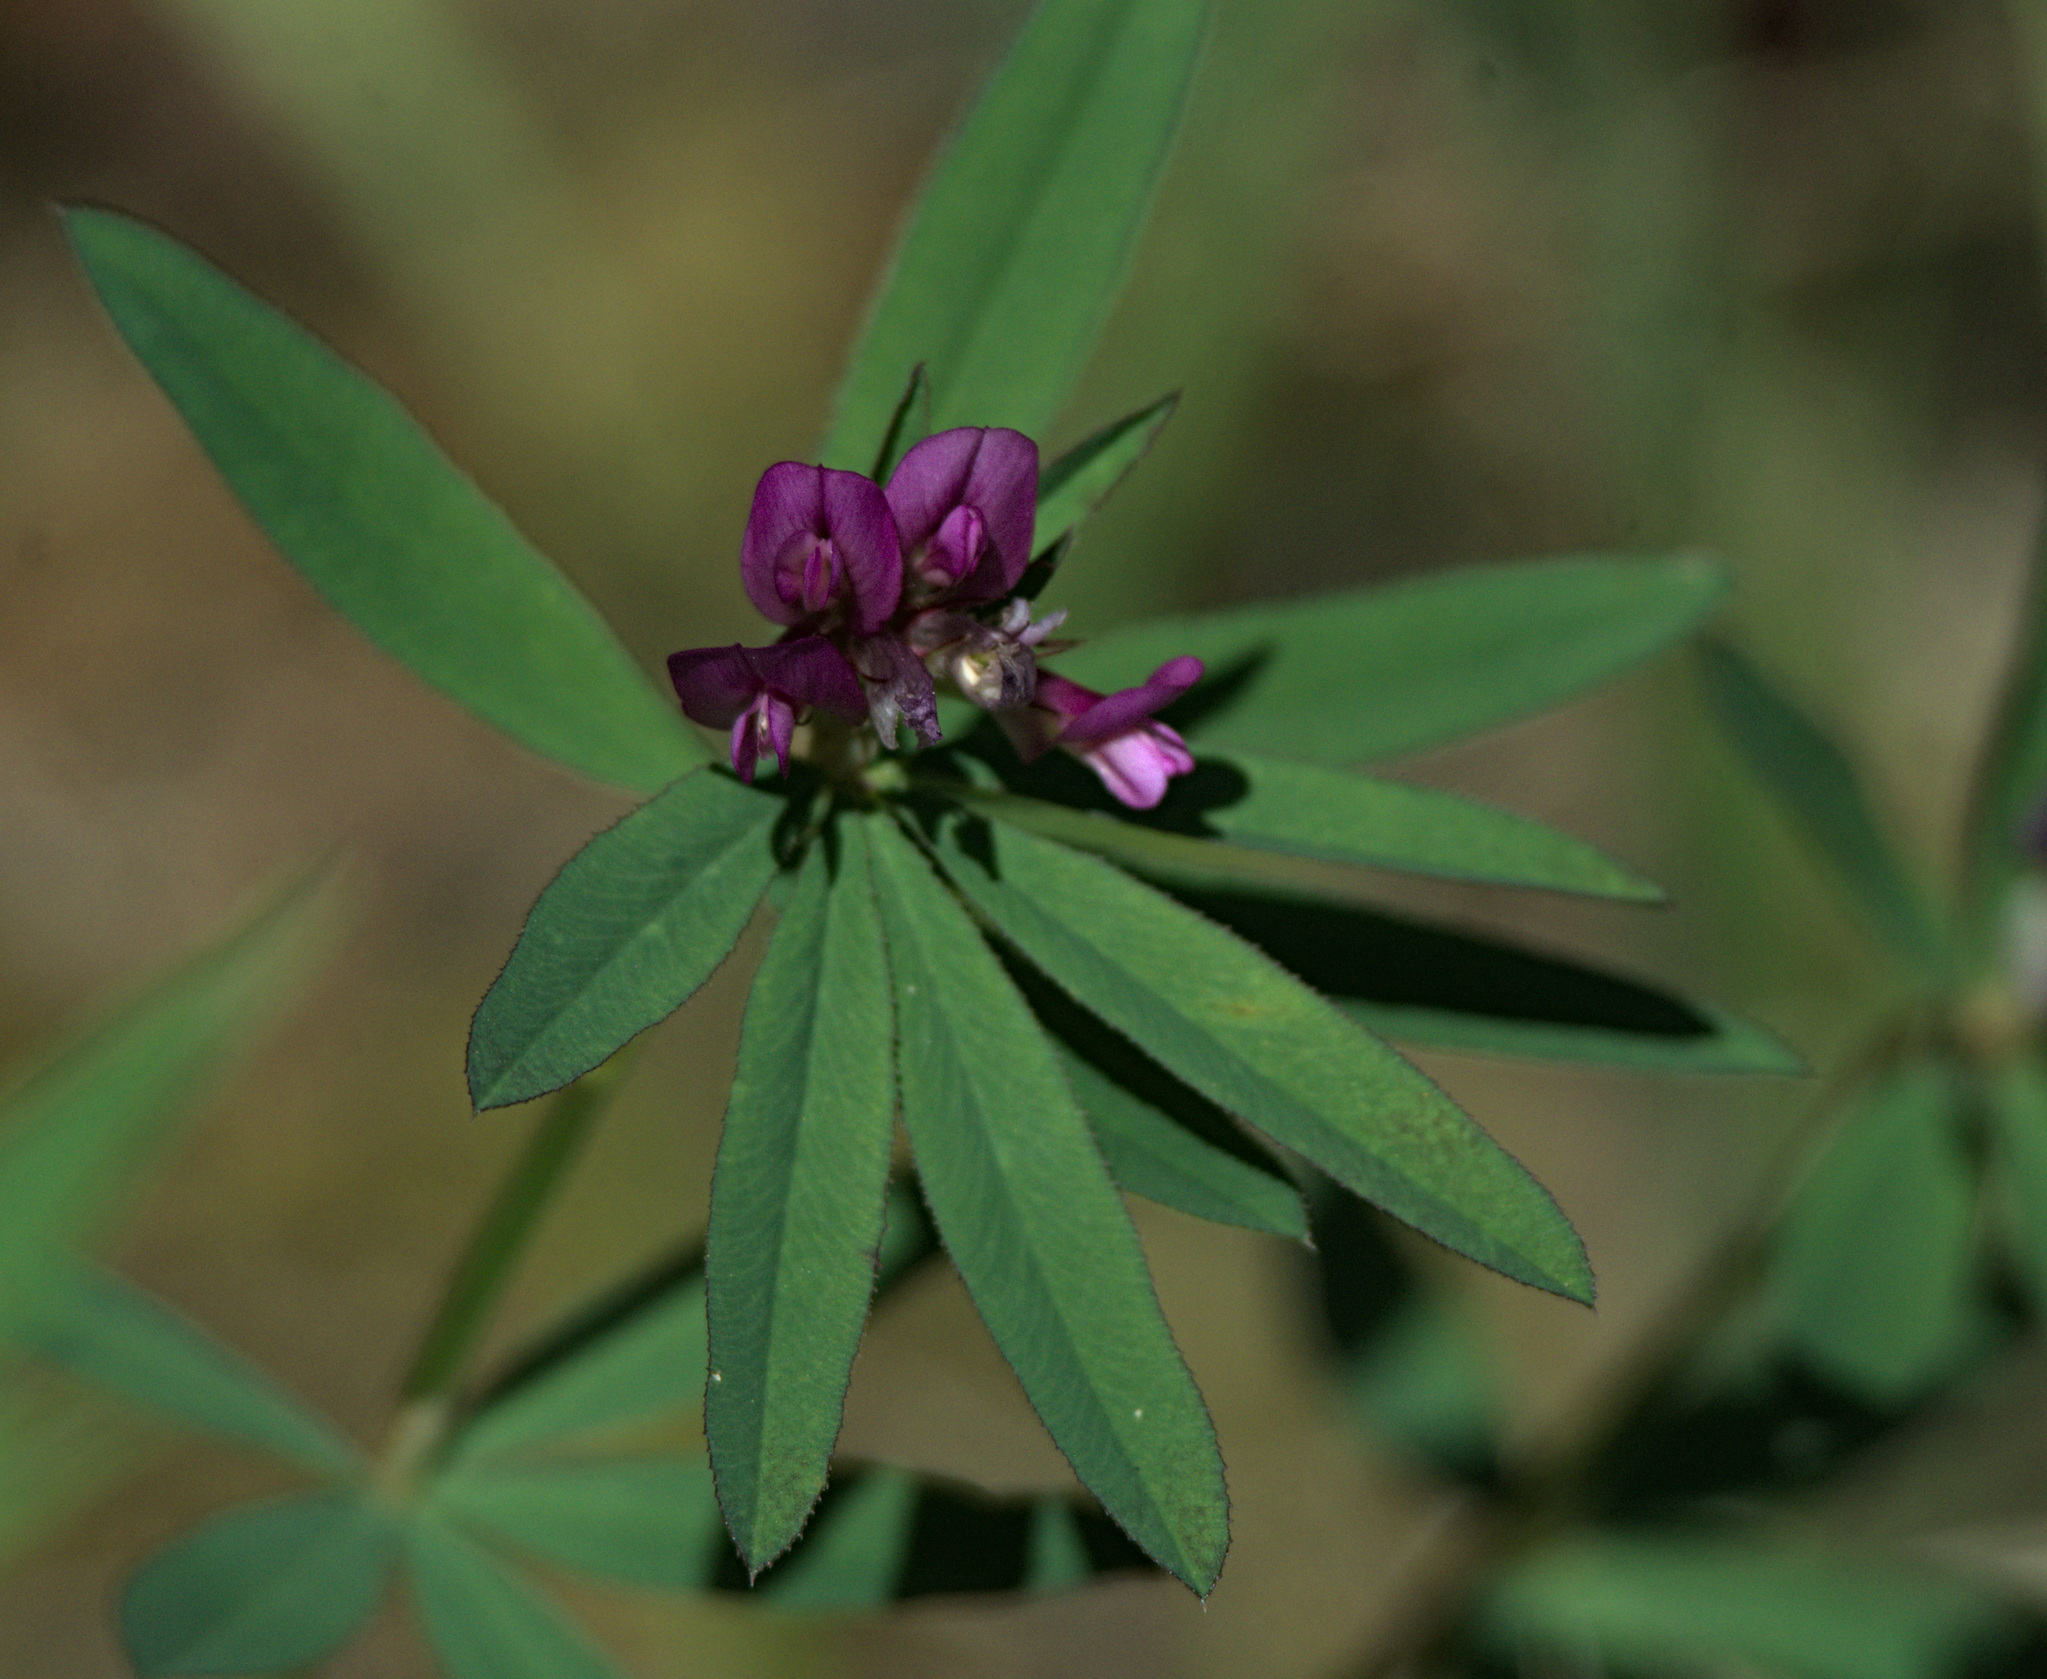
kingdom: Plantae
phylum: Tracheophyta
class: Magnoliopsida
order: Fabales
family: Fabaceae
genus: Trifolium
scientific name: Trifolium lupinaster
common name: Lupine clover
